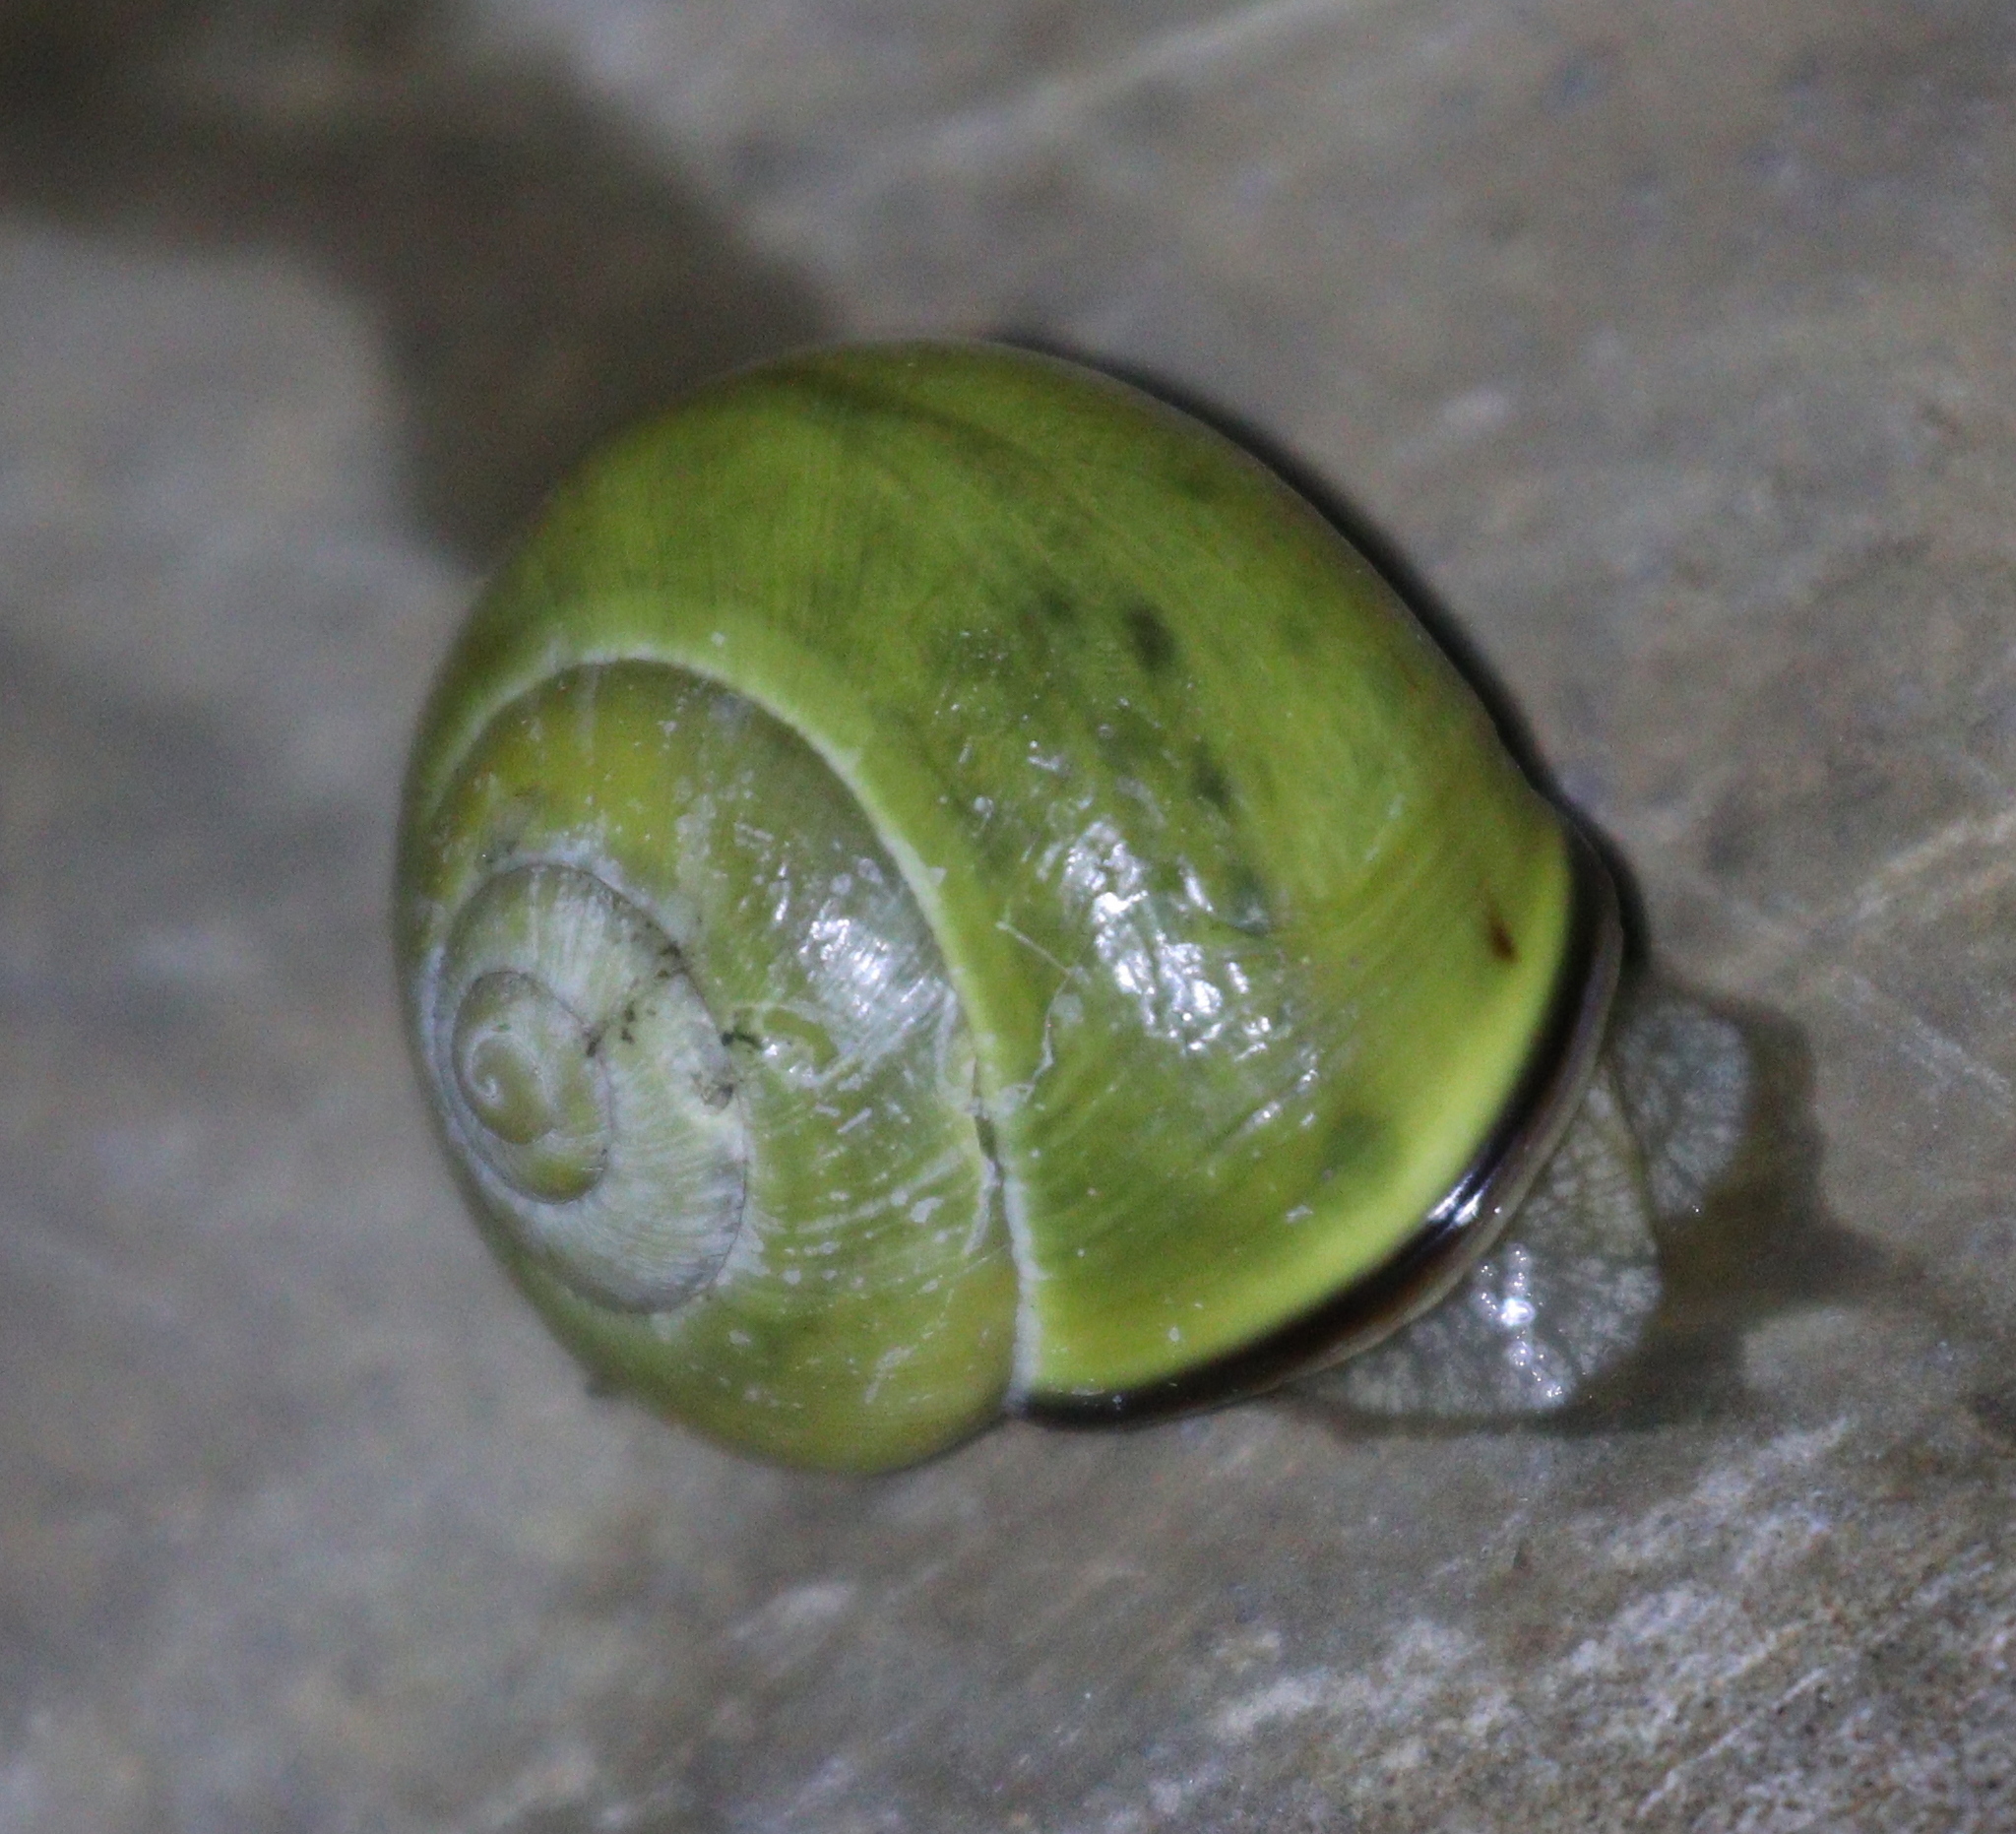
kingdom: Animalia
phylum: Mollusca
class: Gastropoda
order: Stylommatophora
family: Helicidae
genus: Cepaea
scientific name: Cepaea nemoralis
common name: Grovesnail
